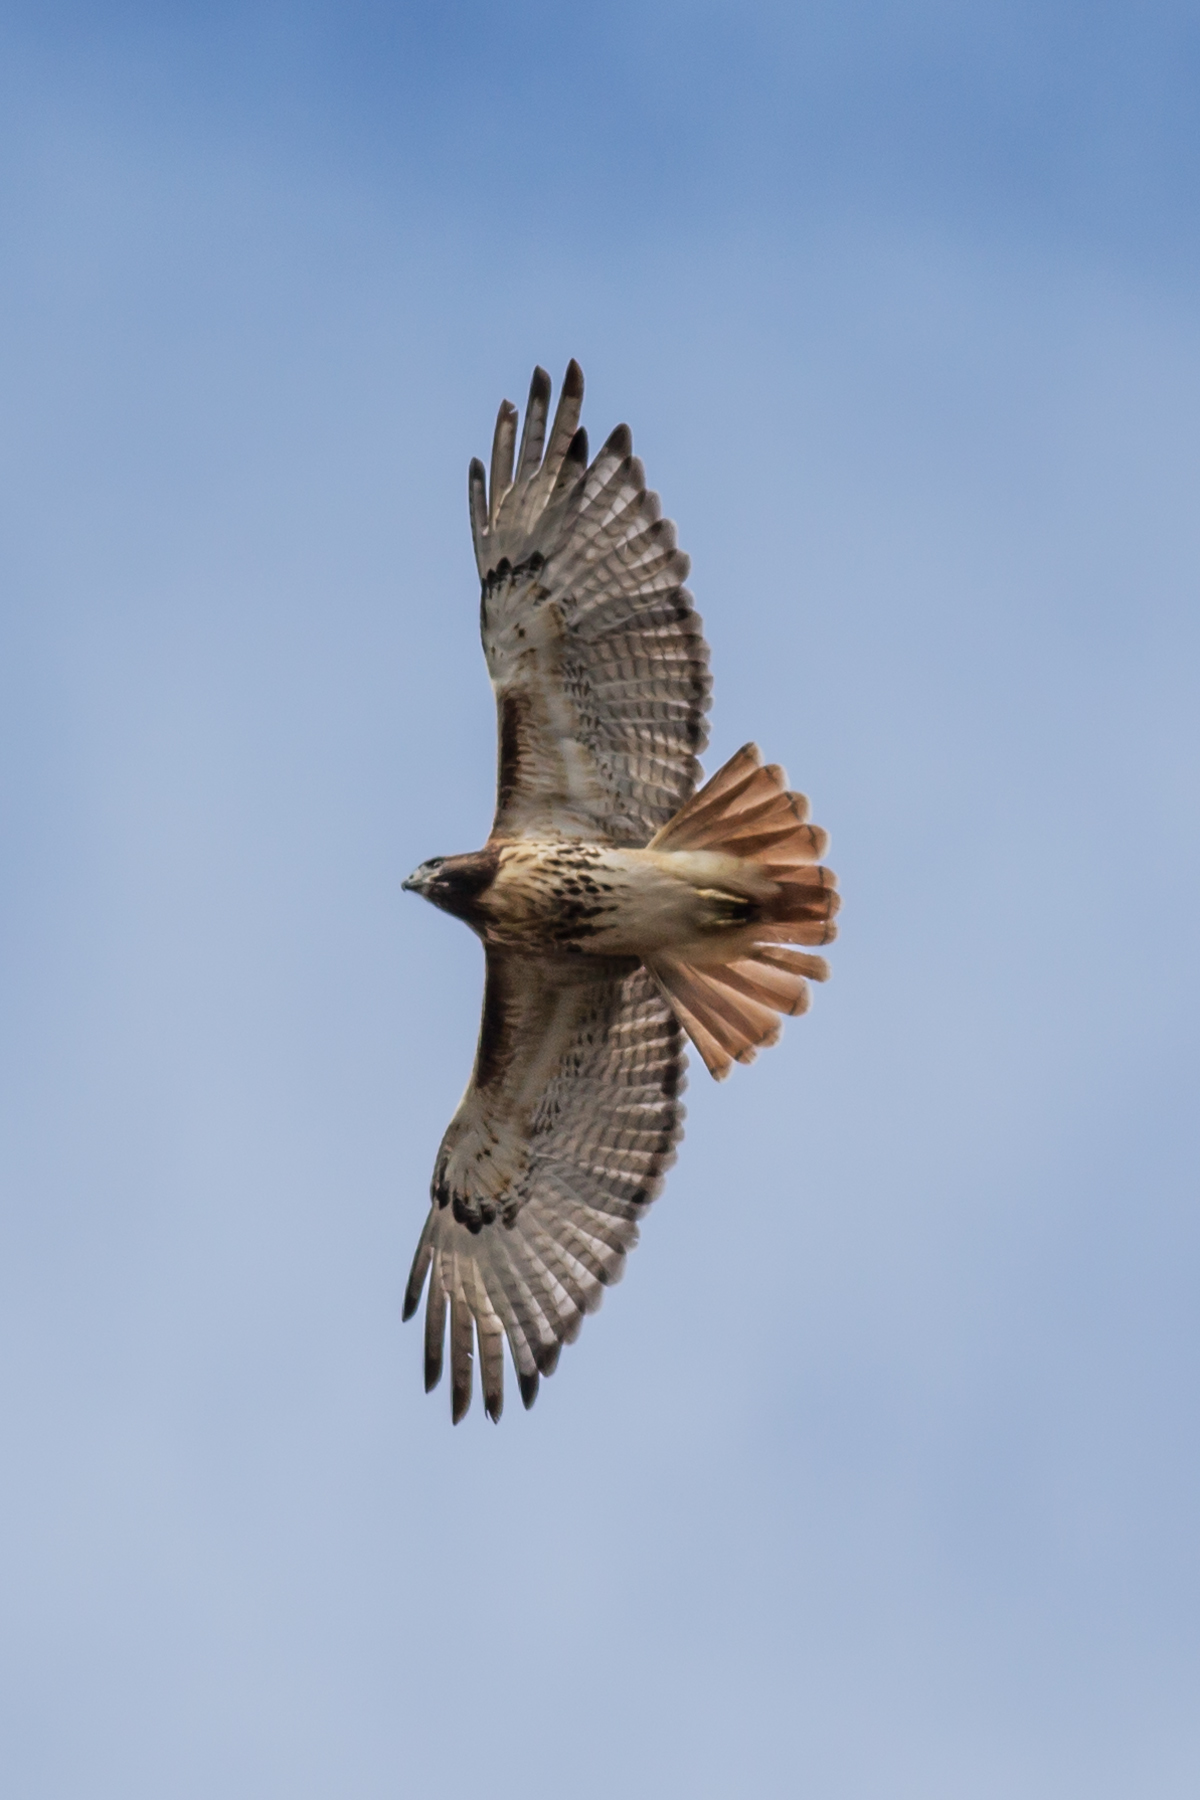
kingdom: Animalia
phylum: Chordata
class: Aves
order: Accipitriformes
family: Accipitridae
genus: Buteo
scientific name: Buteo jamaicensis
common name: Red-tailed hawk
